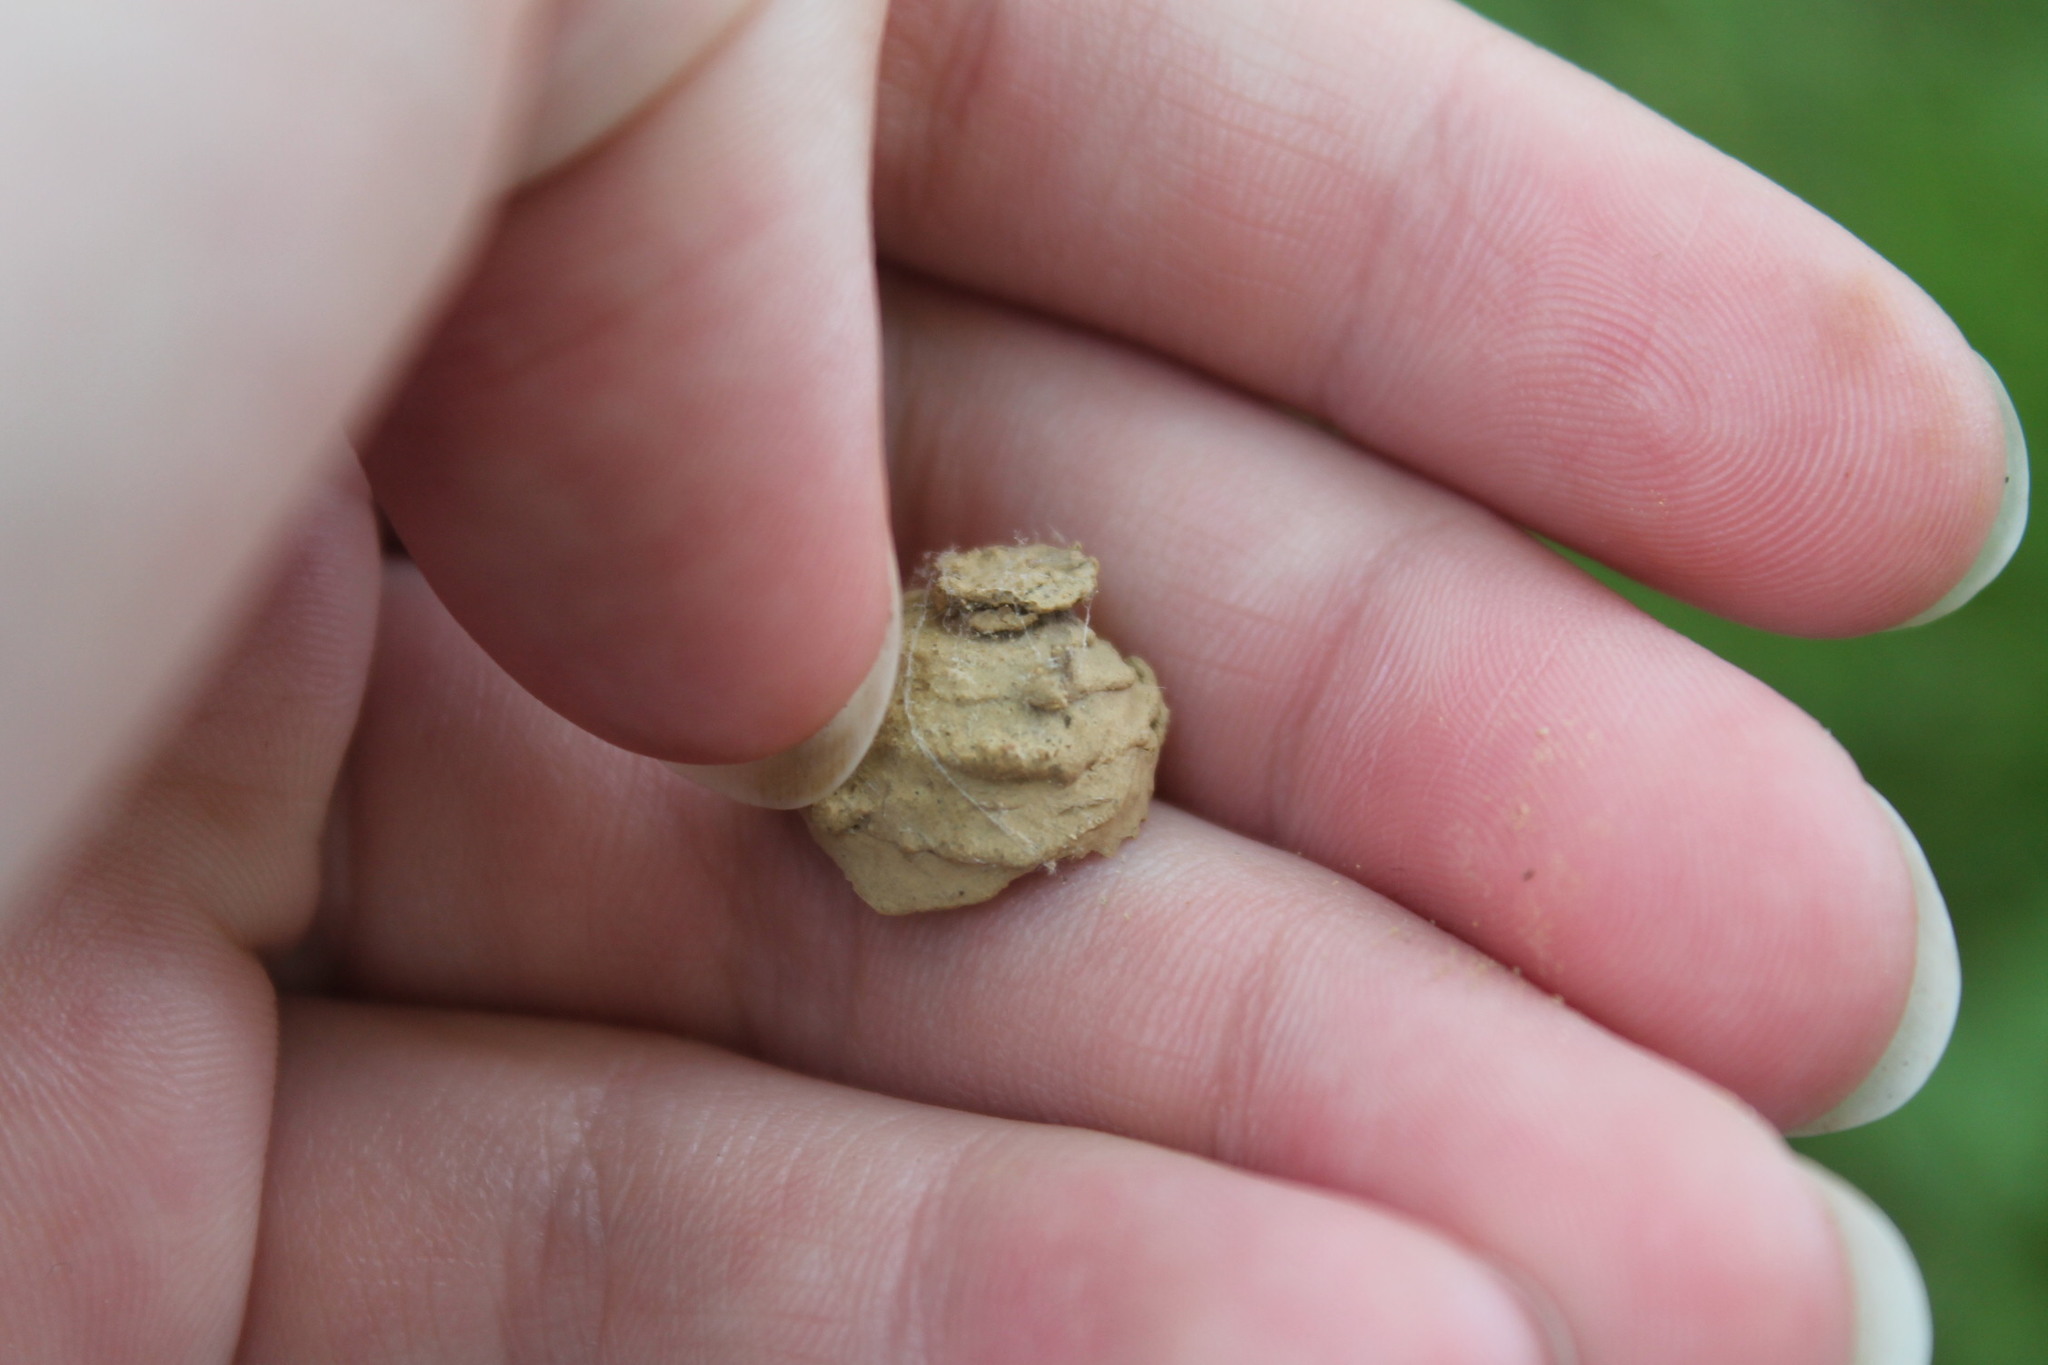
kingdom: Animalia
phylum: Arthropoda
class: Insecta
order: Hymenoptera
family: Vespidae
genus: Eumenes
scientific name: Eumenes
